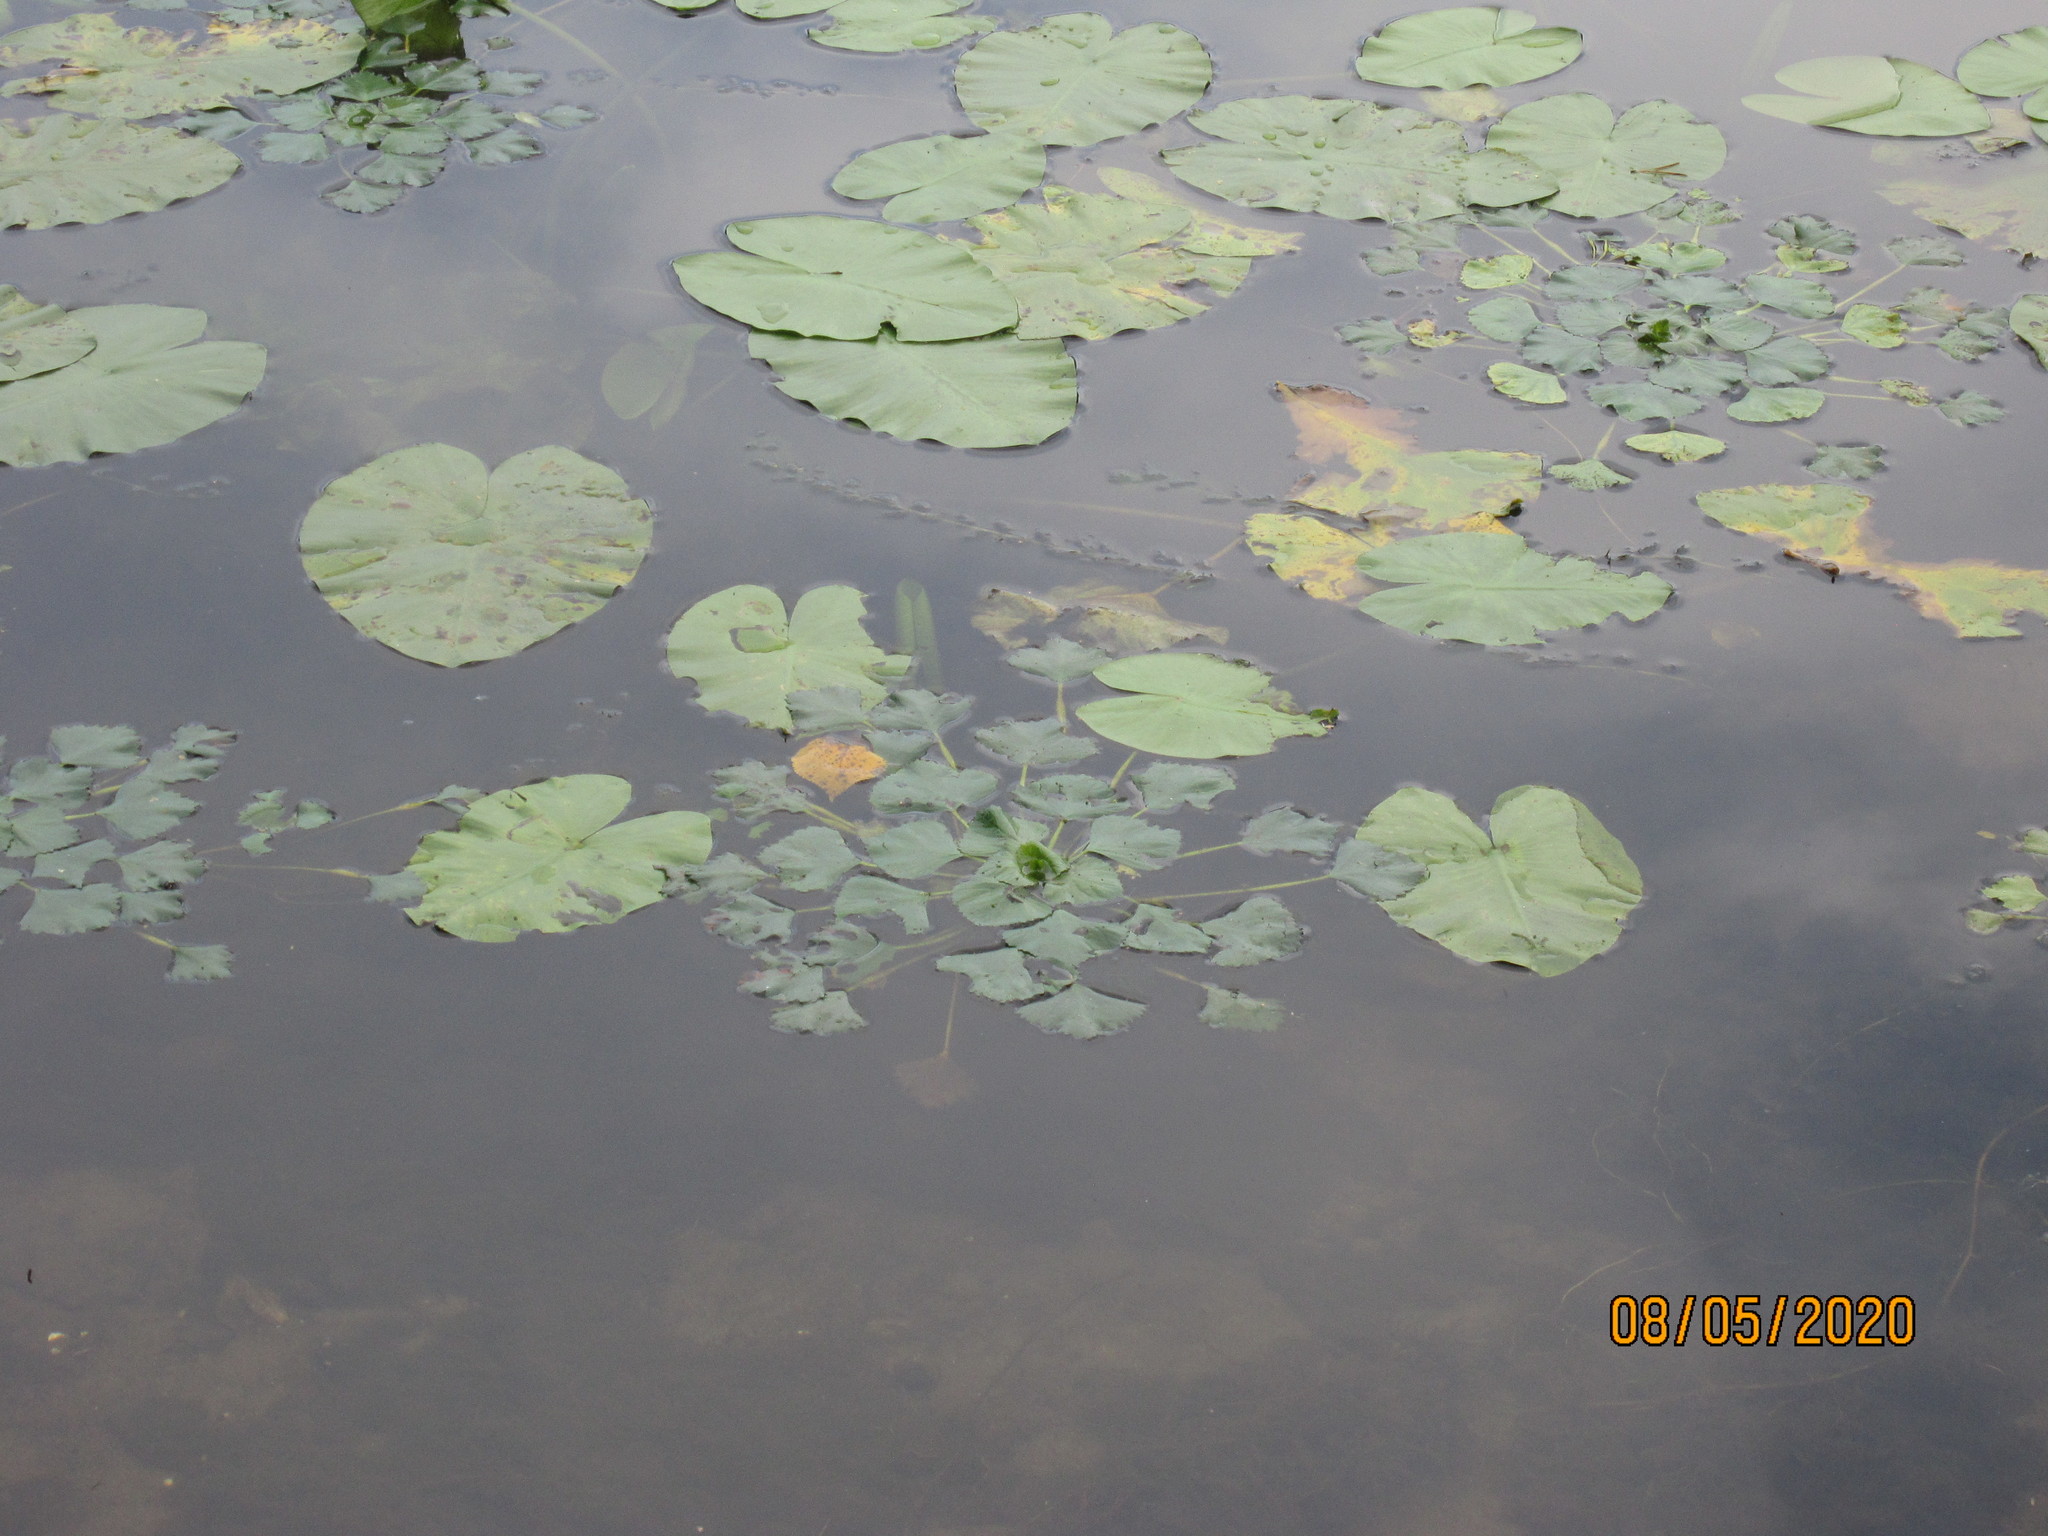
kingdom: Plantae
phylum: Tracheophyta
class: Magnoliopsida
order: Myrtales
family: Lythraceae
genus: Trapa
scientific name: Trapa natans
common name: Water chestnut
